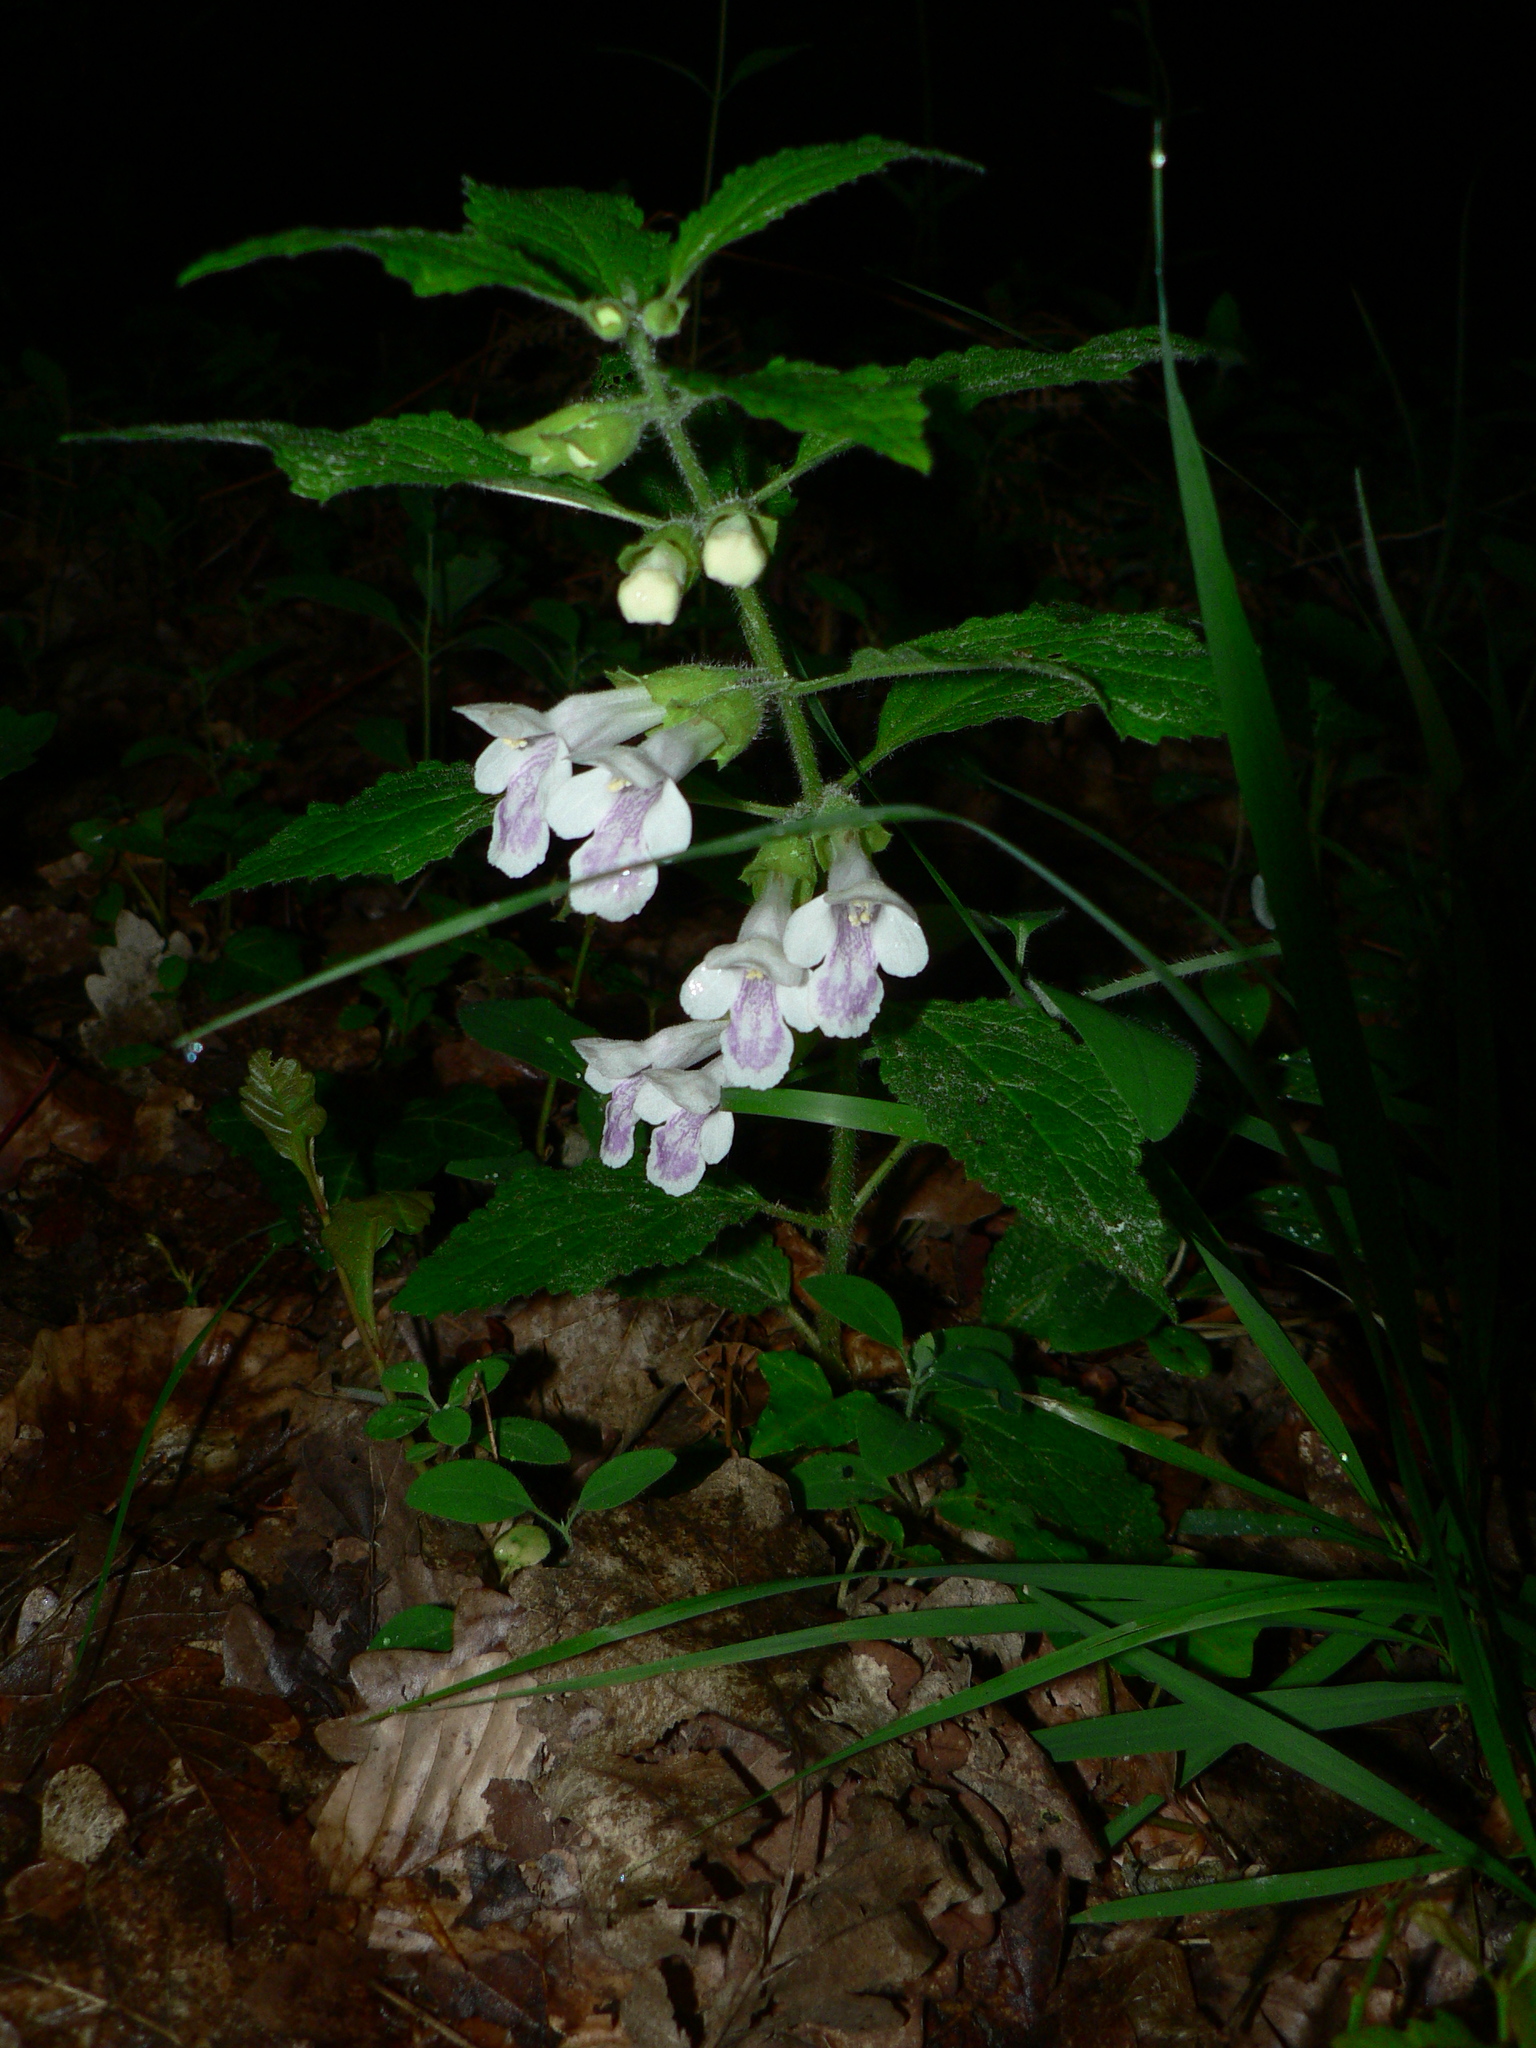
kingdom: Plantae
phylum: Tracheophyta
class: Magnoliopsida
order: Lamiales
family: Lamiaceae
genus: Melittis
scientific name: Melittis melissophyllum
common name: Bastard balm
